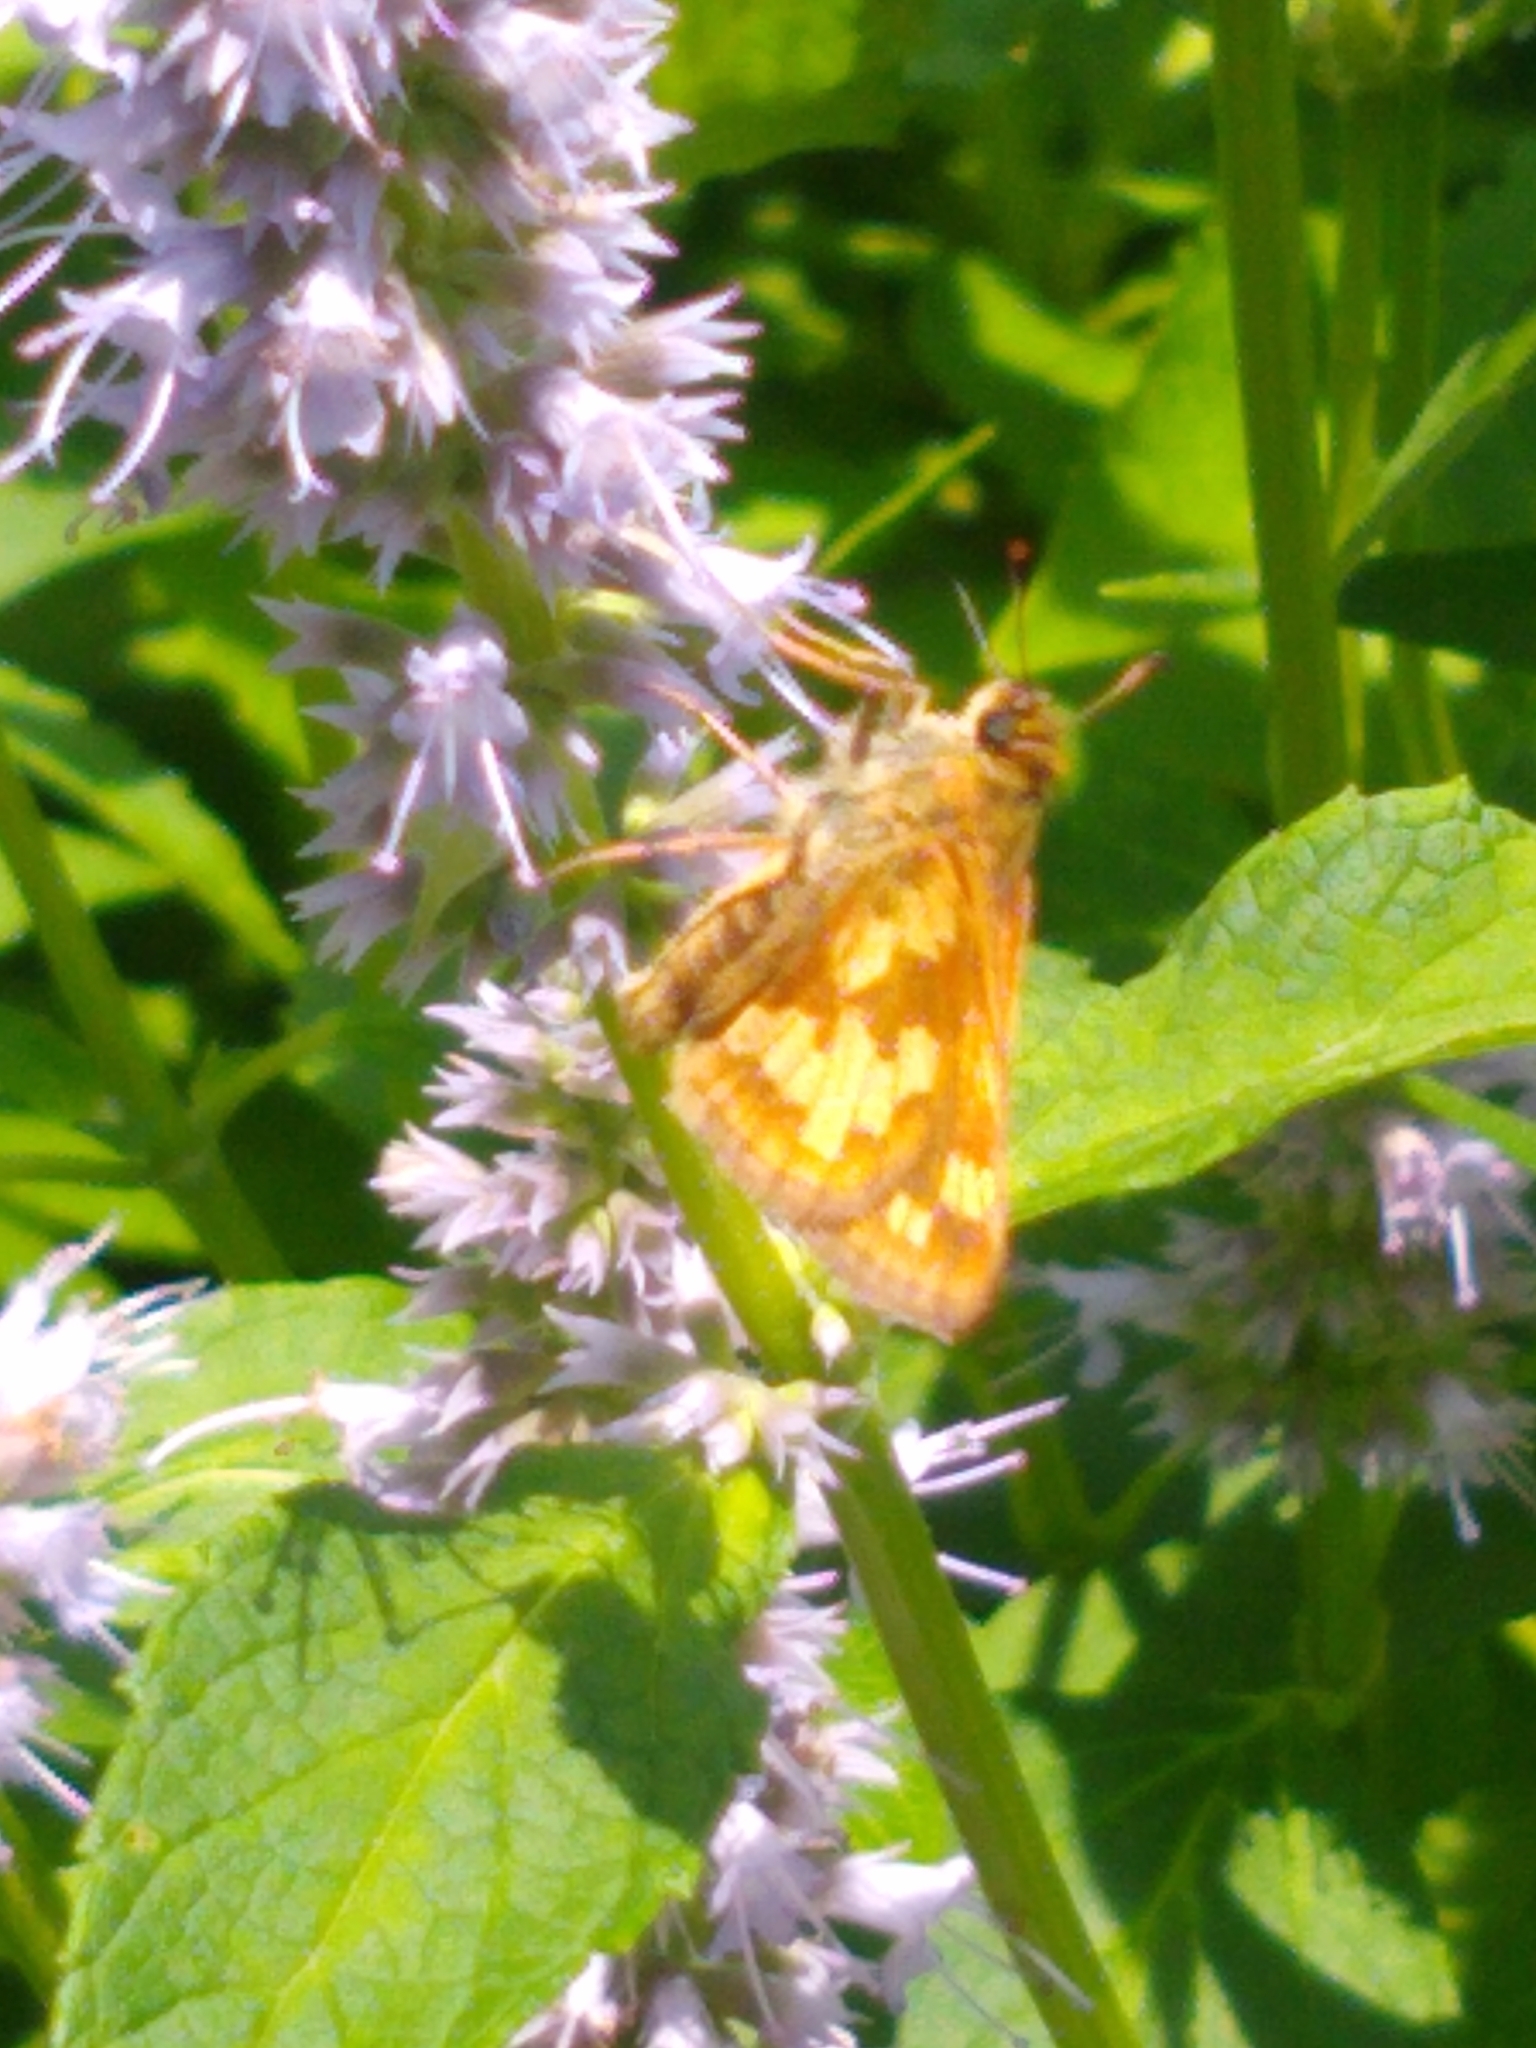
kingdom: Animalia
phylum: Arthropoda
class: Insecta
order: Lepidoptera
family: Hesperiidae
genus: Polites
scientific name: Polites coras
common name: Peck's skipper
